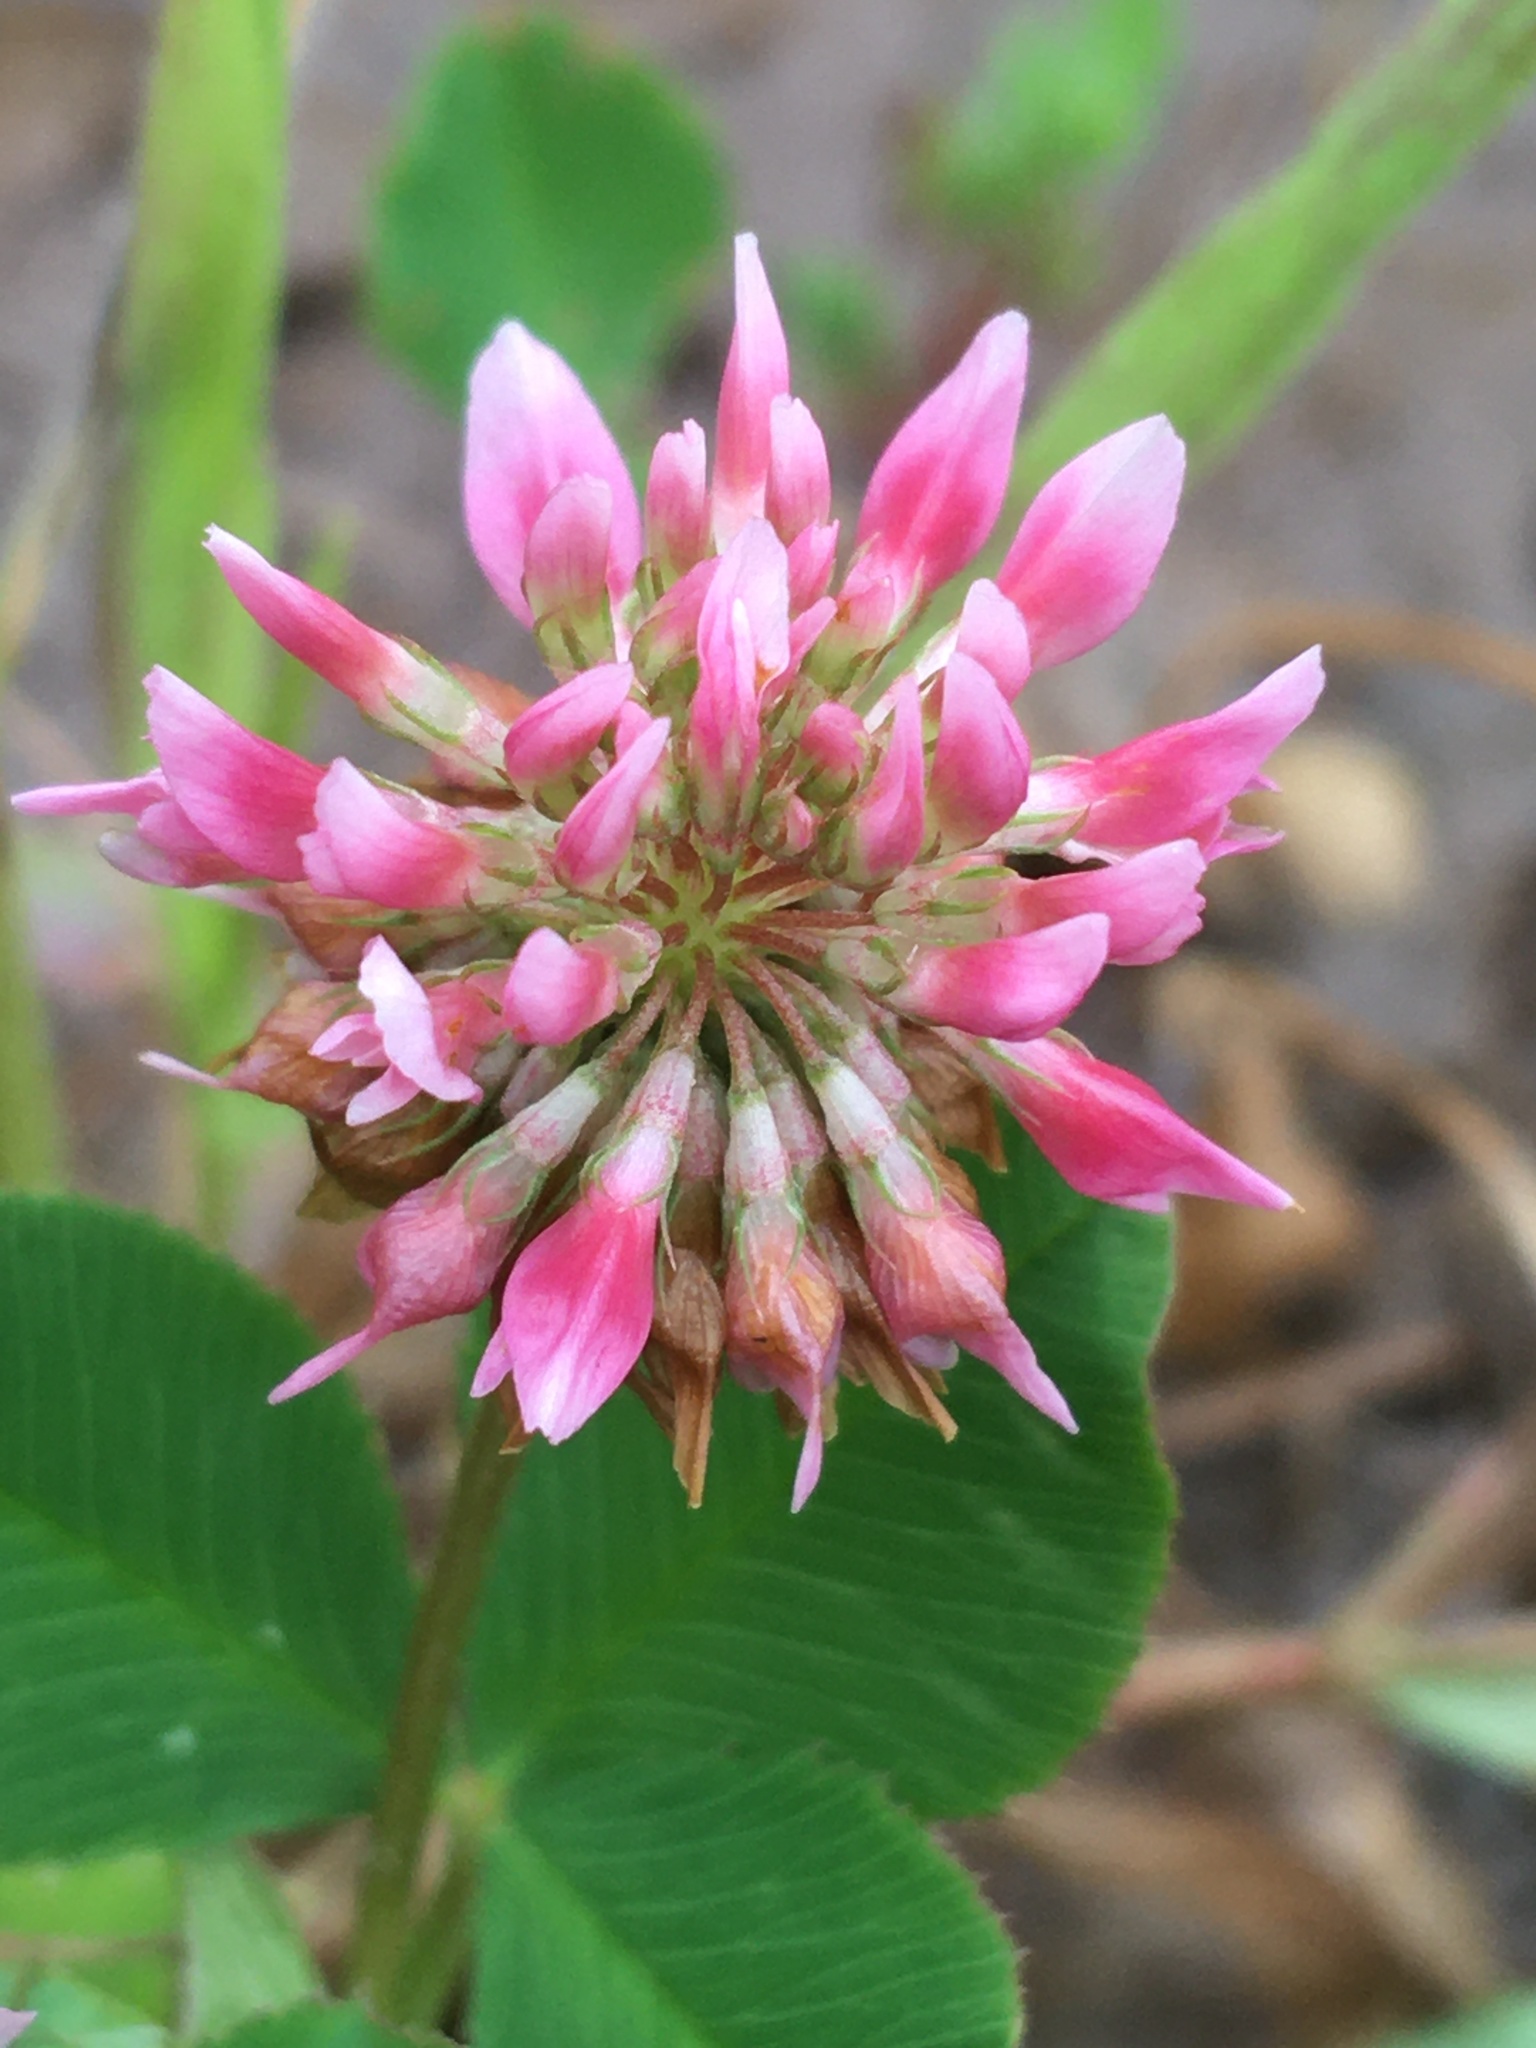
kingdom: Plantae
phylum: Tracheophyta
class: Magnoliopsida
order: Fabales
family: Fabaceae
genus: Trifolium
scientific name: Trifolium hybridum
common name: Alsike clover
